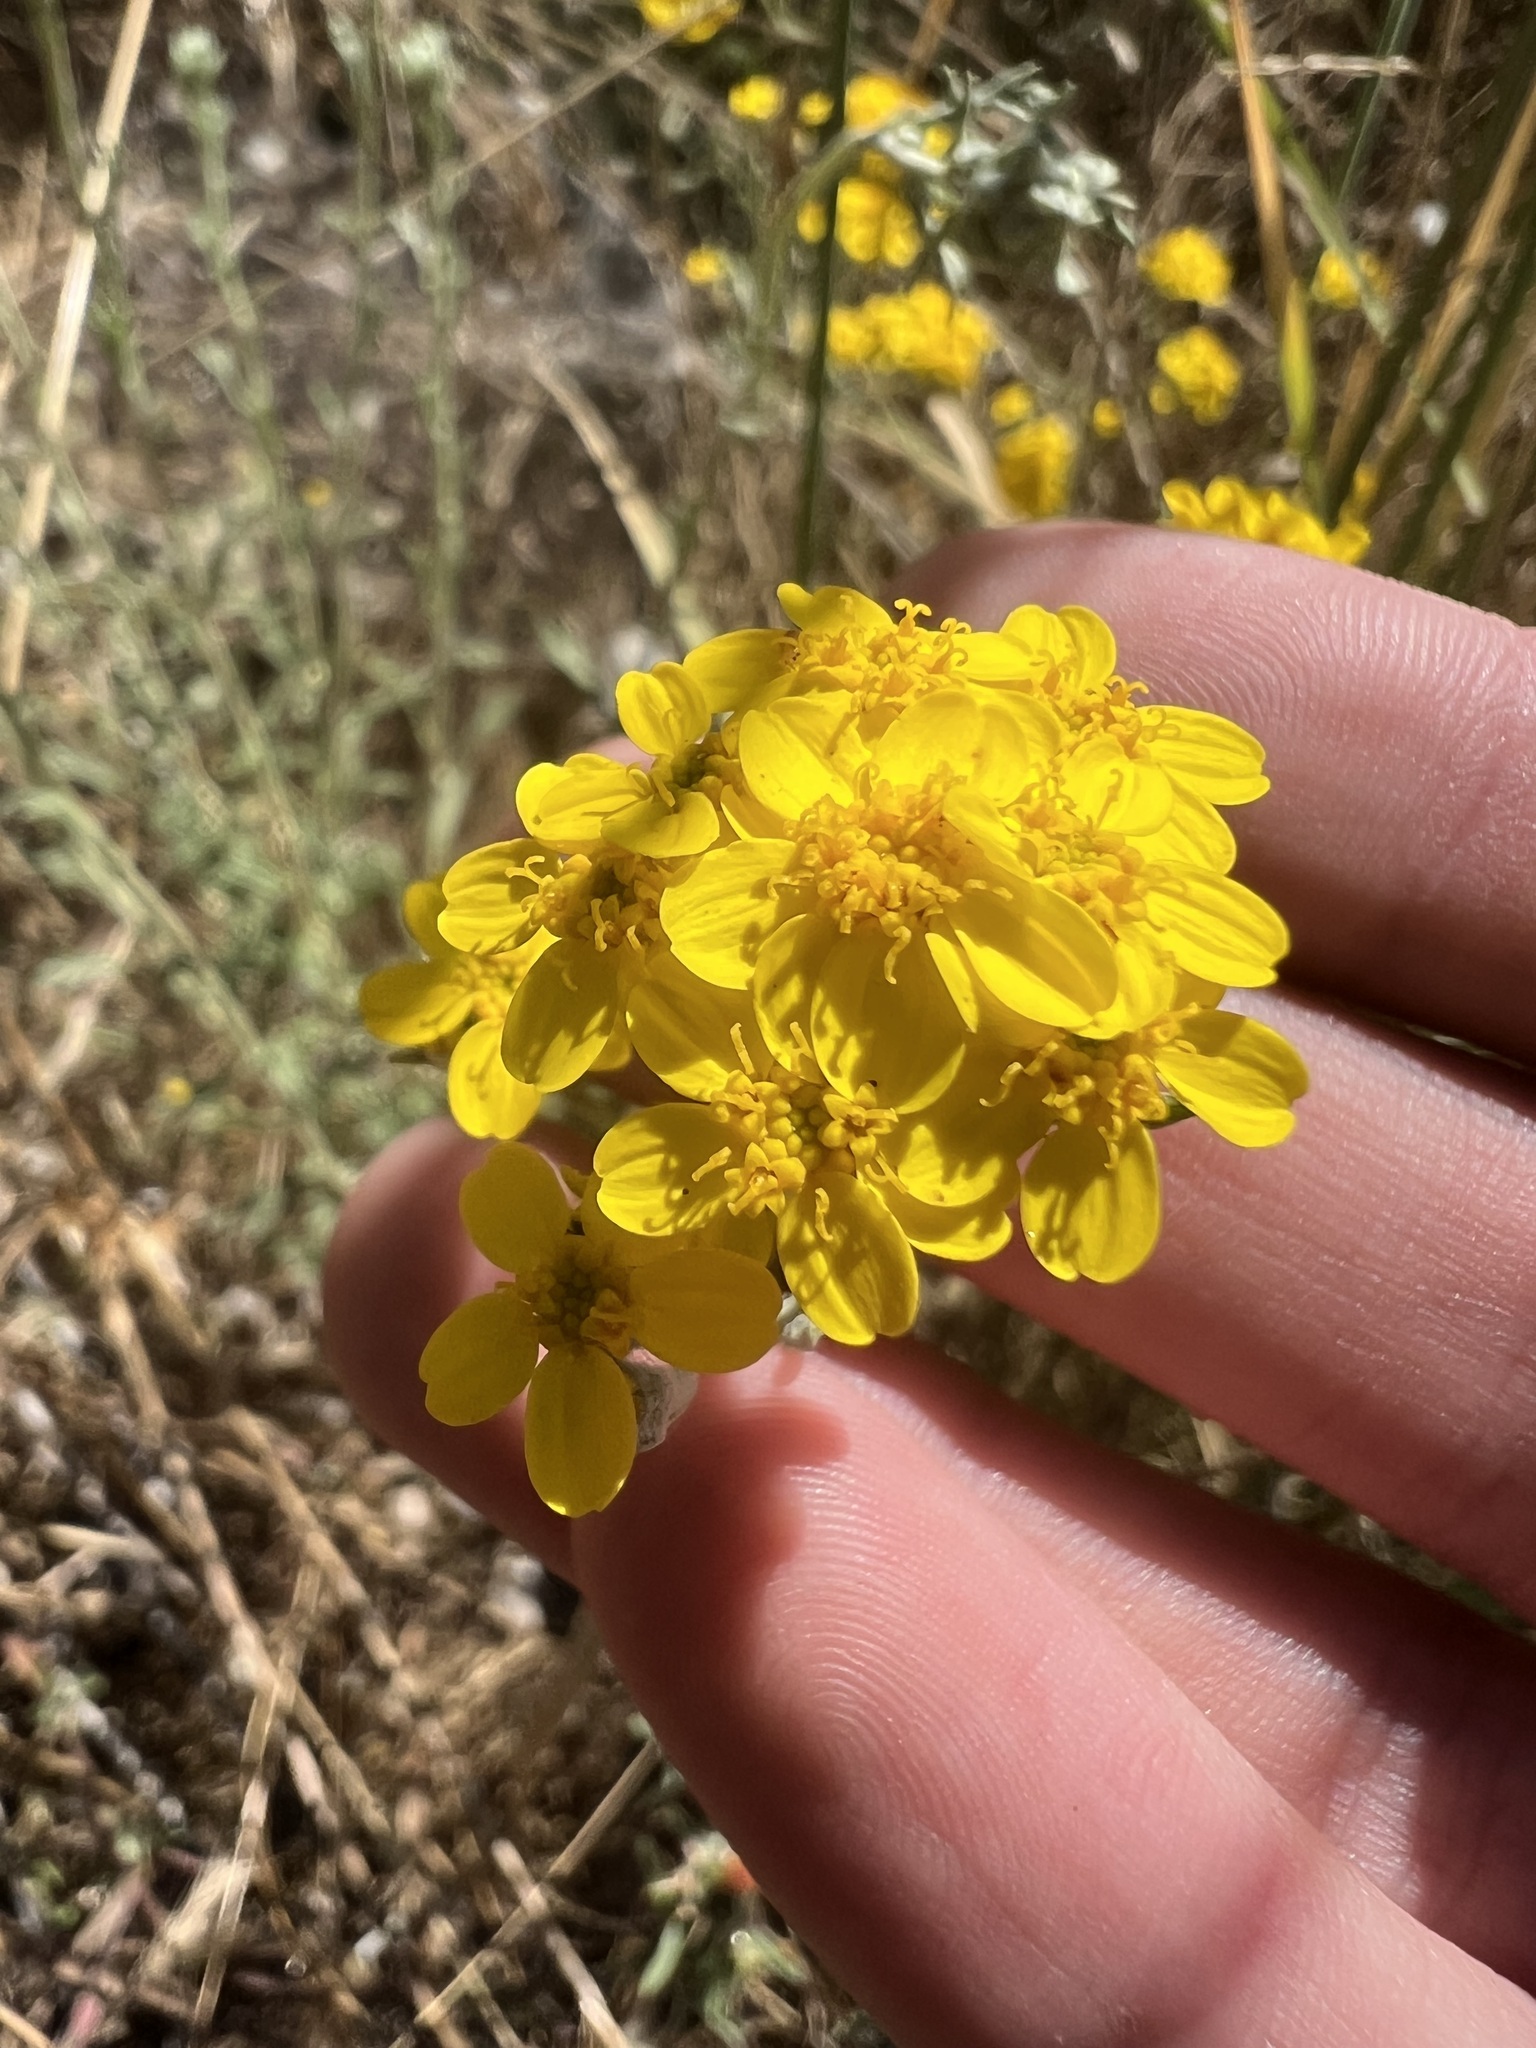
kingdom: Plantae
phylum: Tracheophyta
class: Magnoliopsida
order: Asterales
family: Asteraceae
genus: Eriophyllum
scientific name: Eriophyllum confertiflorum
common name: Golden-yarrow
